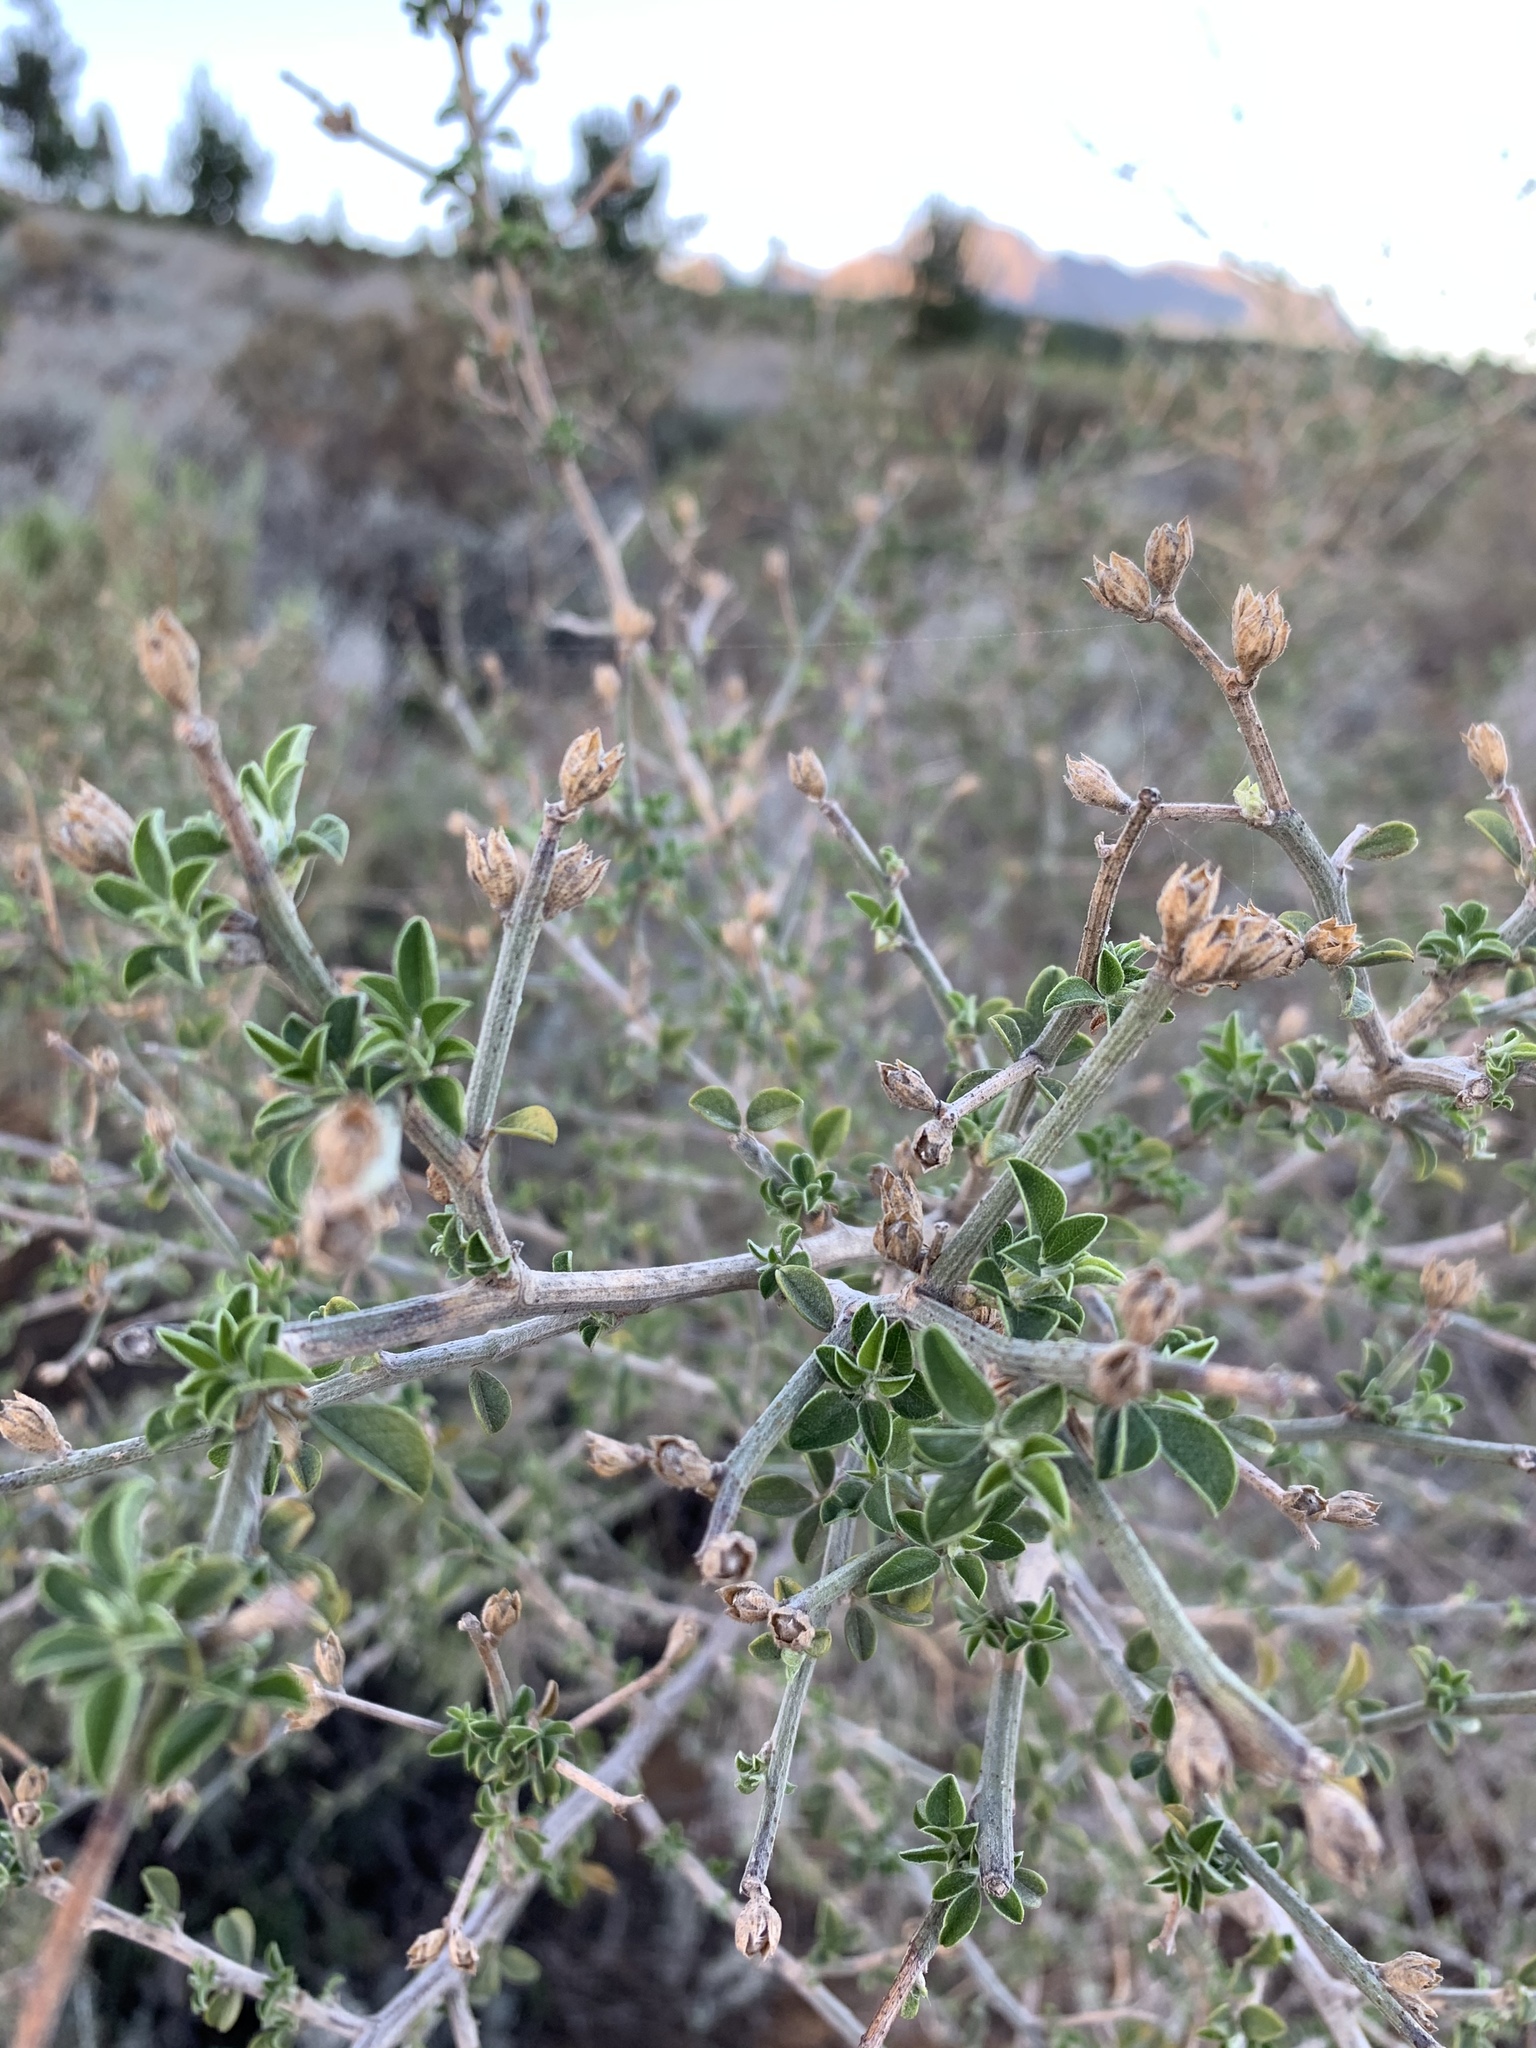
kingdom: Plantae
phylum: Tracheophyta
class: Magnoliopsida
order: Fabales
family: Fabaceae
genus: Psoralea
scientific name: Psoralea hirta
